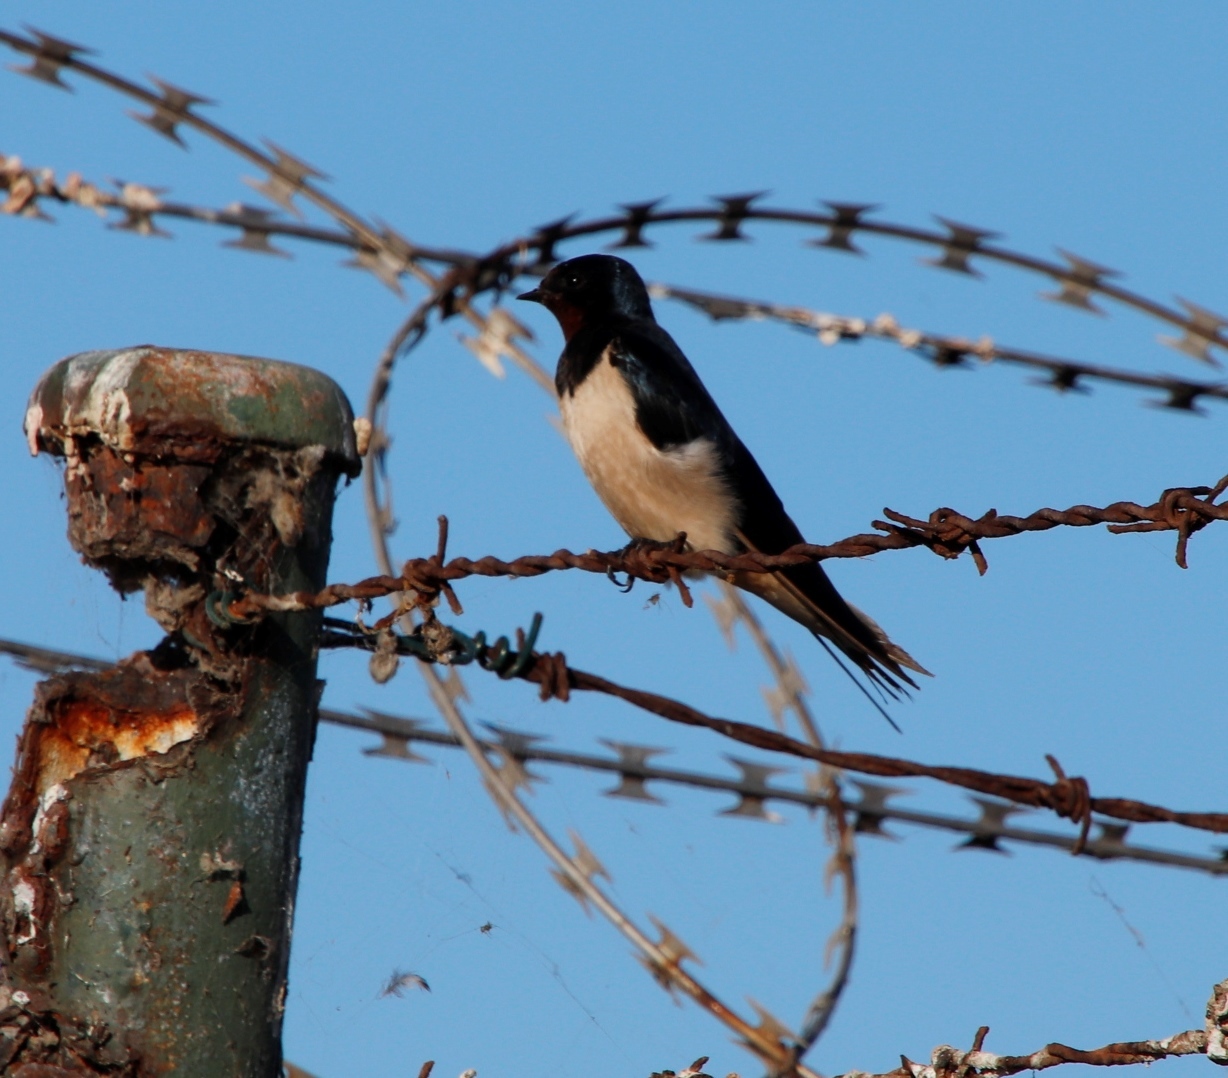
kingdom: Animalia
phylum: Chordata
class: Aves
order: Passeriformes
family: Hirundinidae
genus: Hirundo
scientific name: Hirundo rustica
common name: Barn swallow
